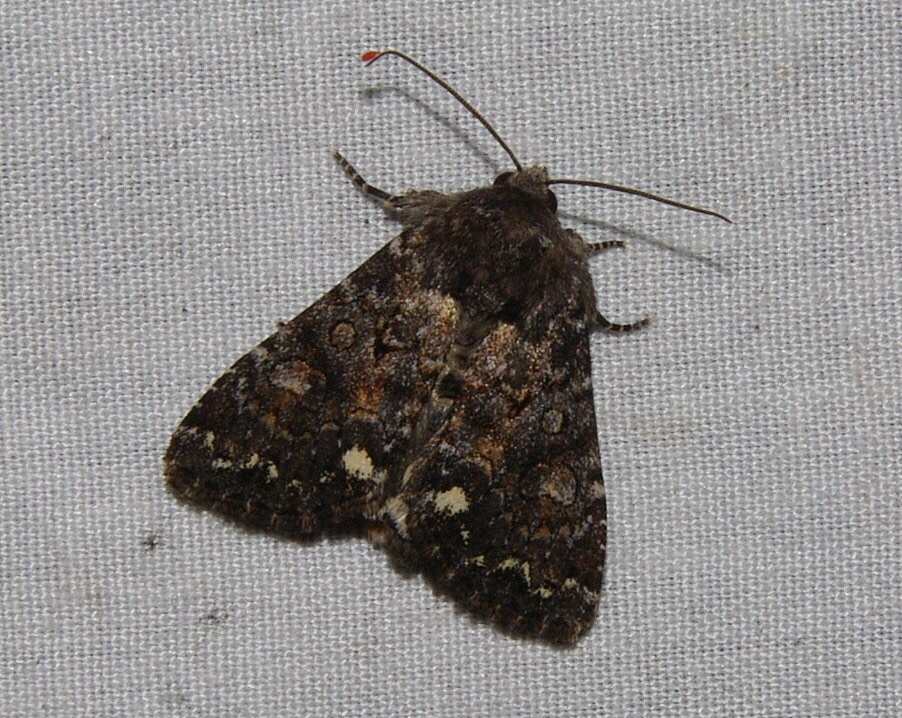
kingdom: Animalia
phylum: Arthropoda
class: Insecta
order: Lepidoptera
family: Noctuidae
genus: Melanchra
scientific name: Melanchra pulverulenta
